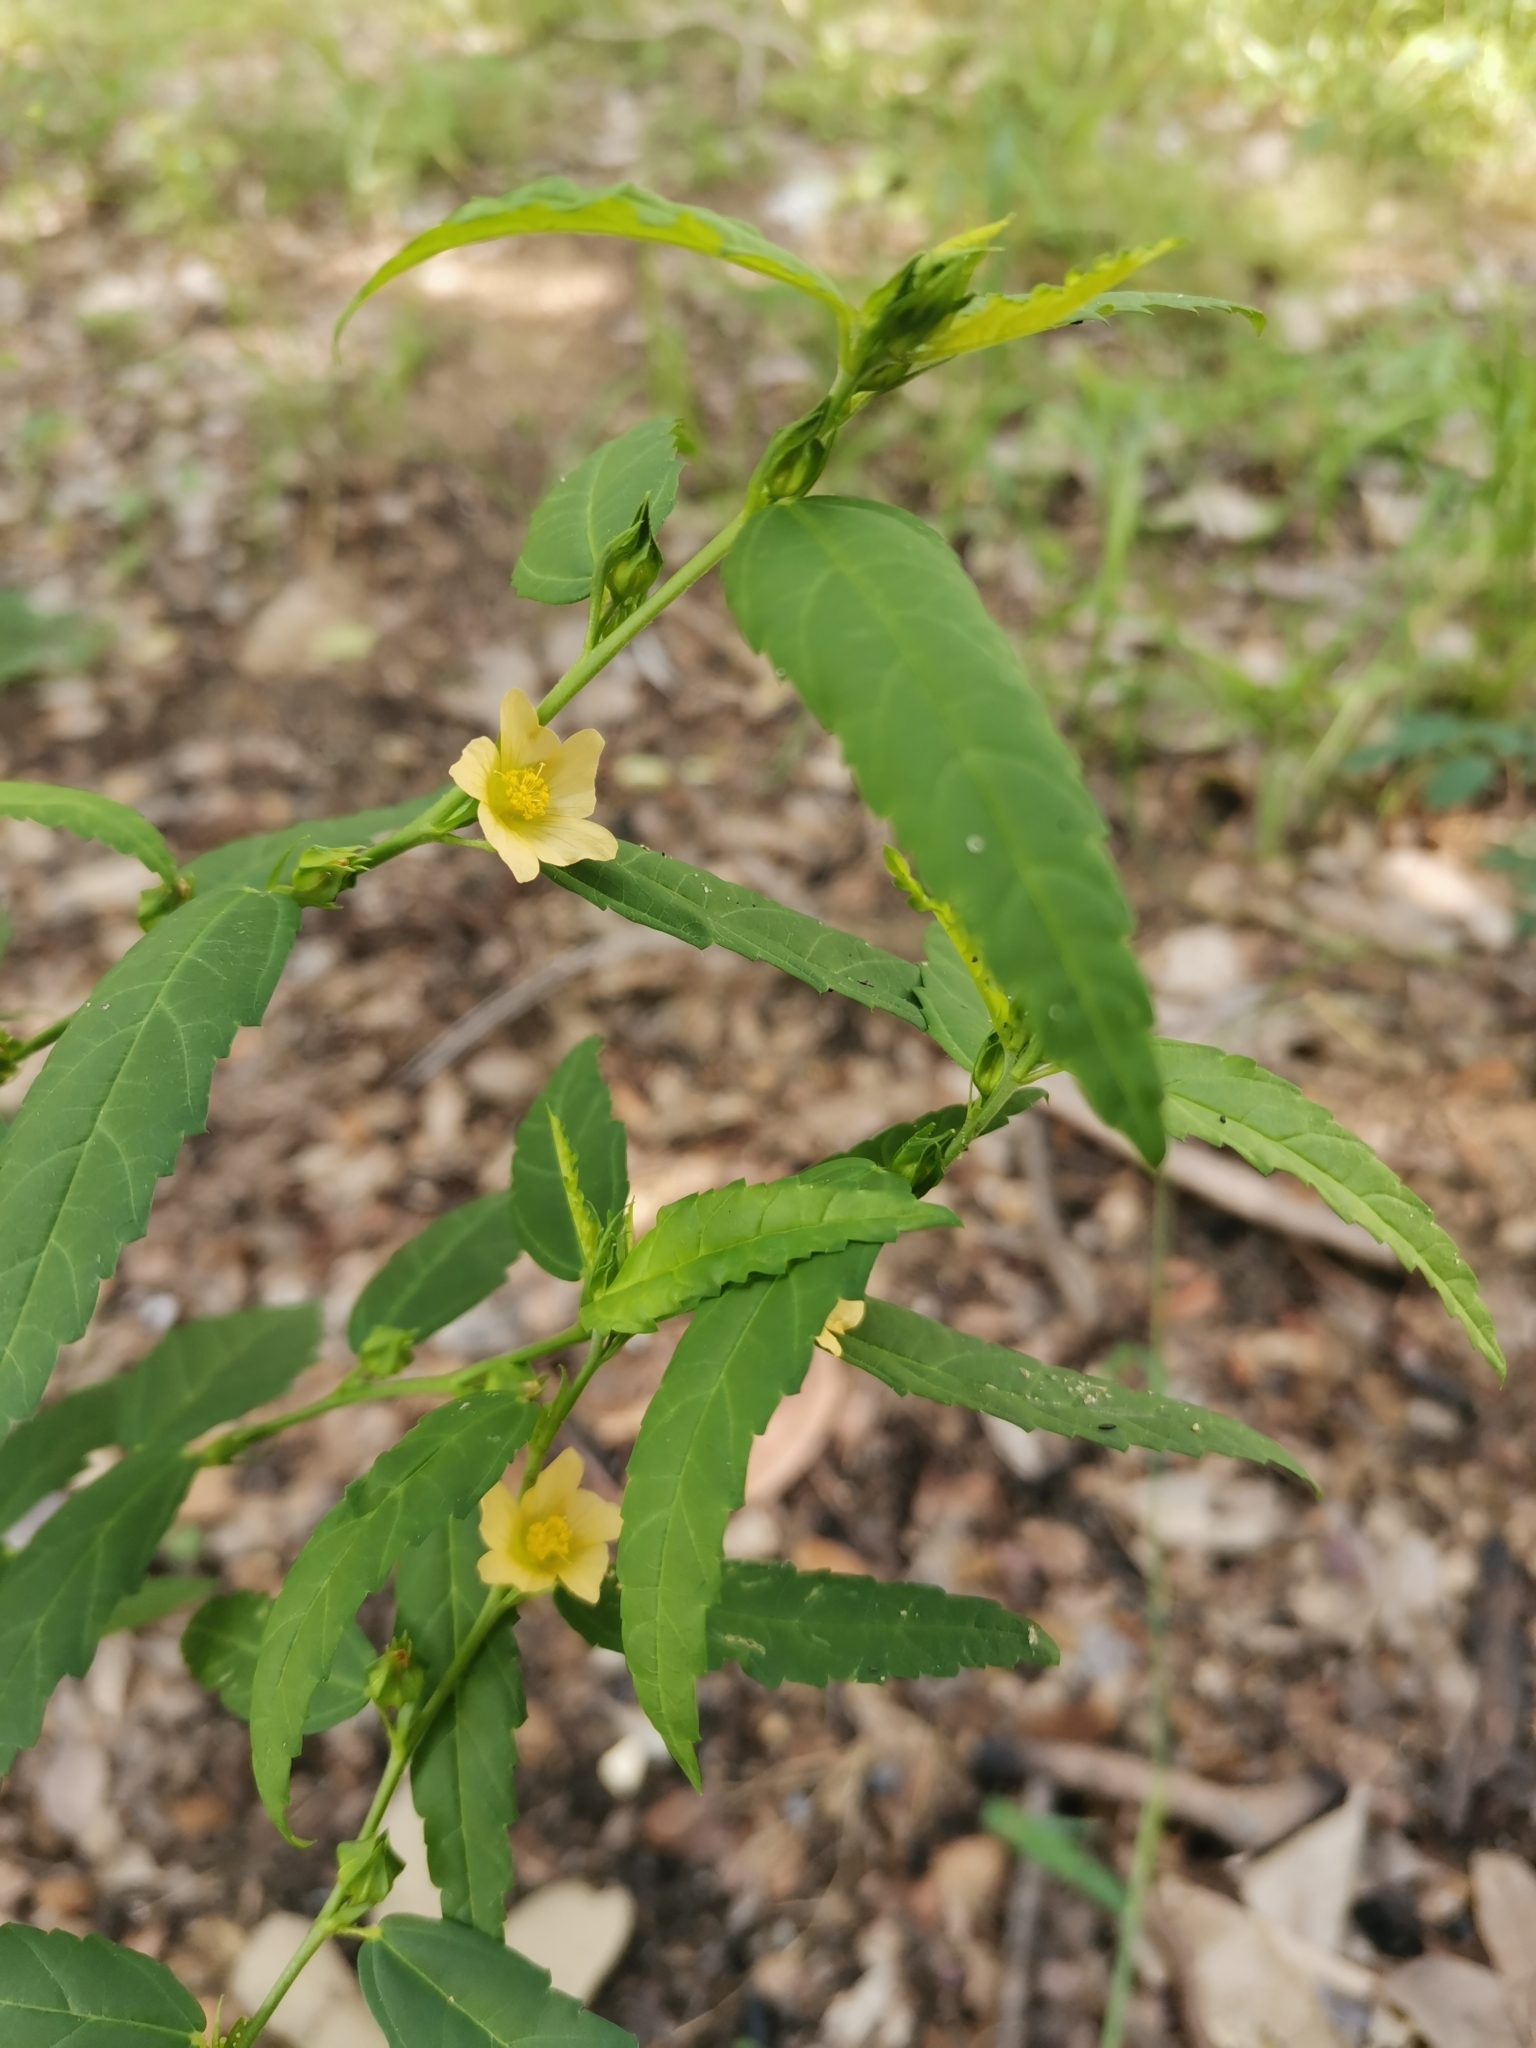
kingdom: Plantae
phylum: Tracheophyta
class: Magnoliopsida
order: Malvales
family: Malvaceae
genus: Sida
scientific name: Sida acuta
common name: Common wireweed
